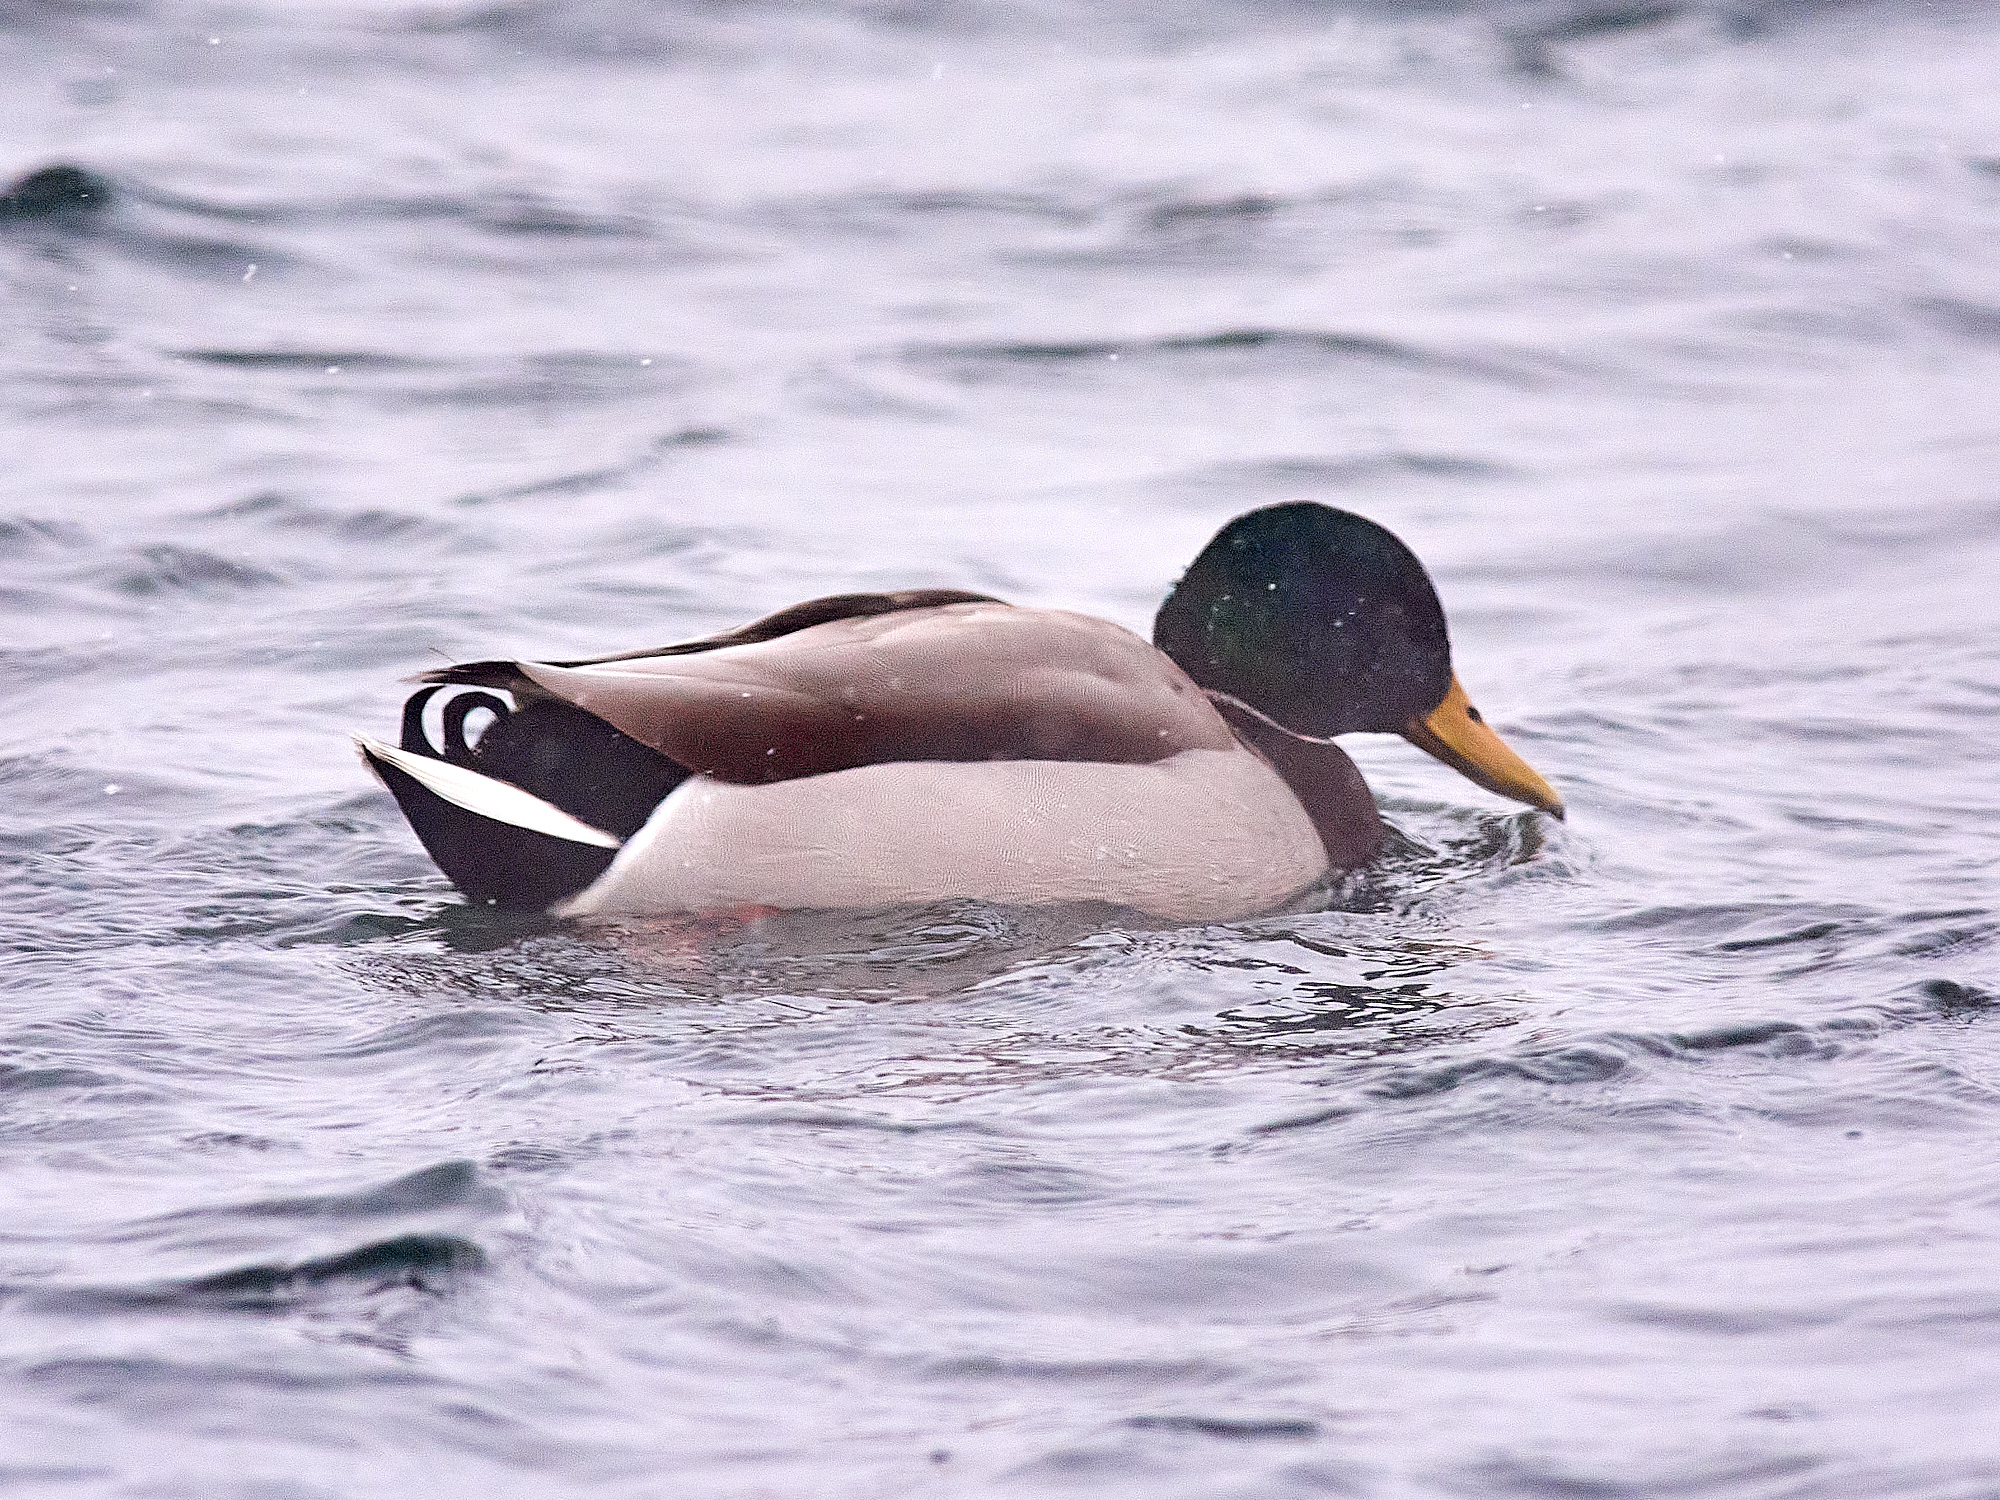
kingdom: Animalia
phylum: Chordata
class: Aves
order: Anseriformes
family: Anatidae
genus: Anas
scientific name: Anas platyrhynchos
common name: Mallard
